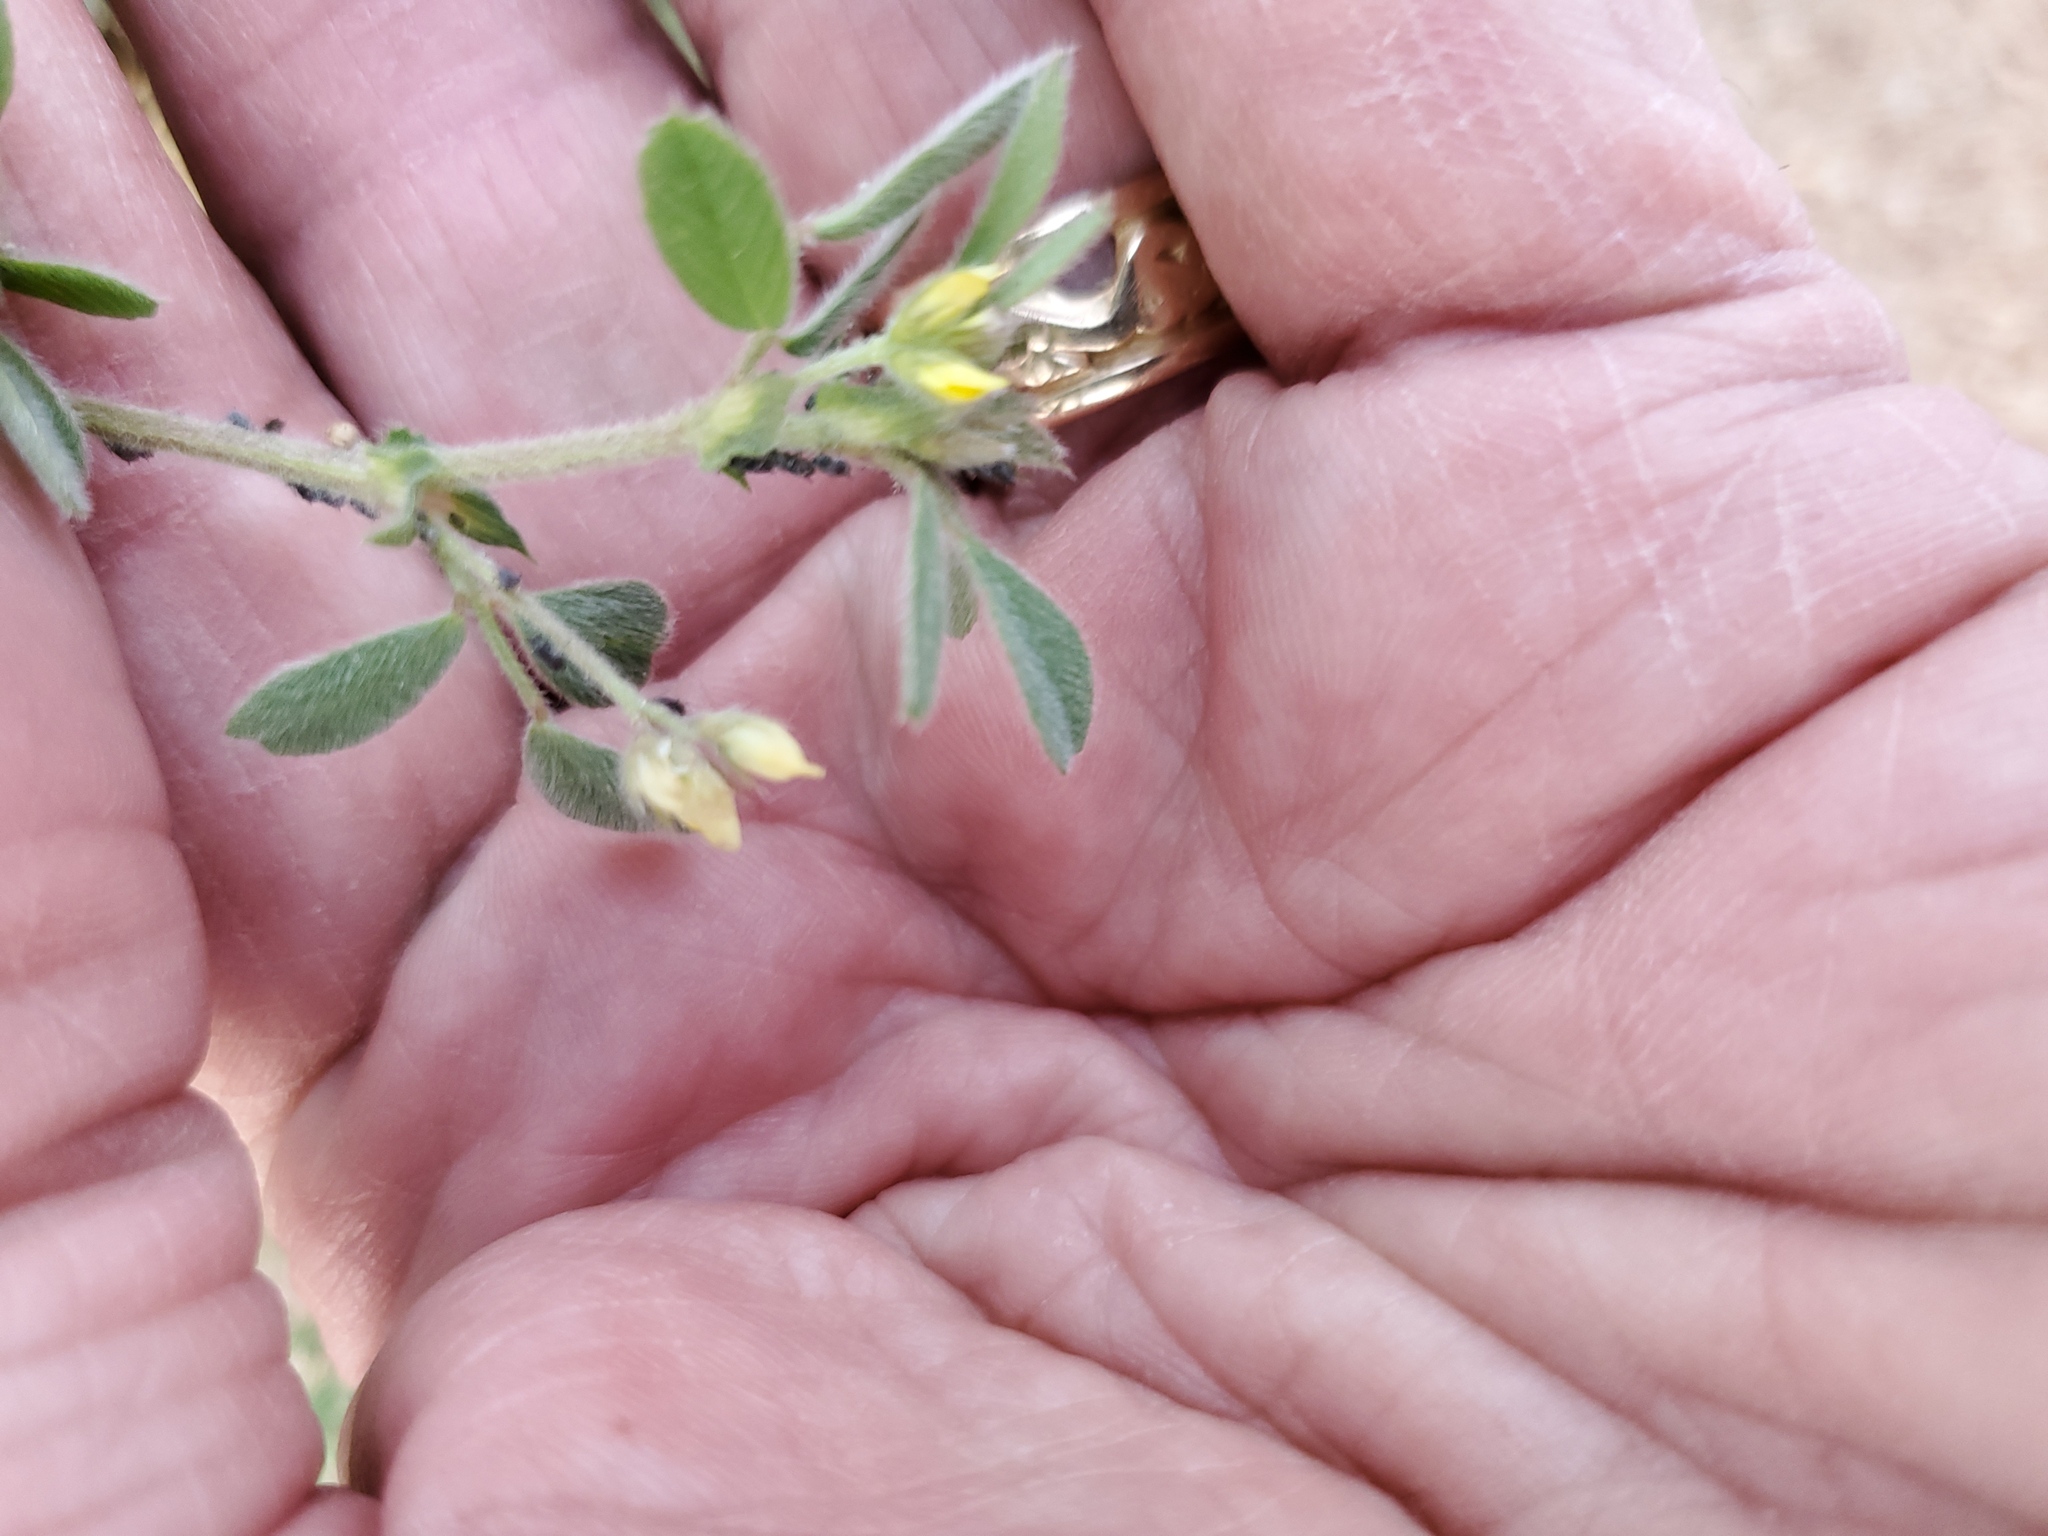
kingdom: Plantae
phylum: Tracheophyta
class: Magnoliopsida
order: Fabales
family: Fabaceae
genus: Medicago
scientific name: Medicago minima
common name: Little bur-clover
